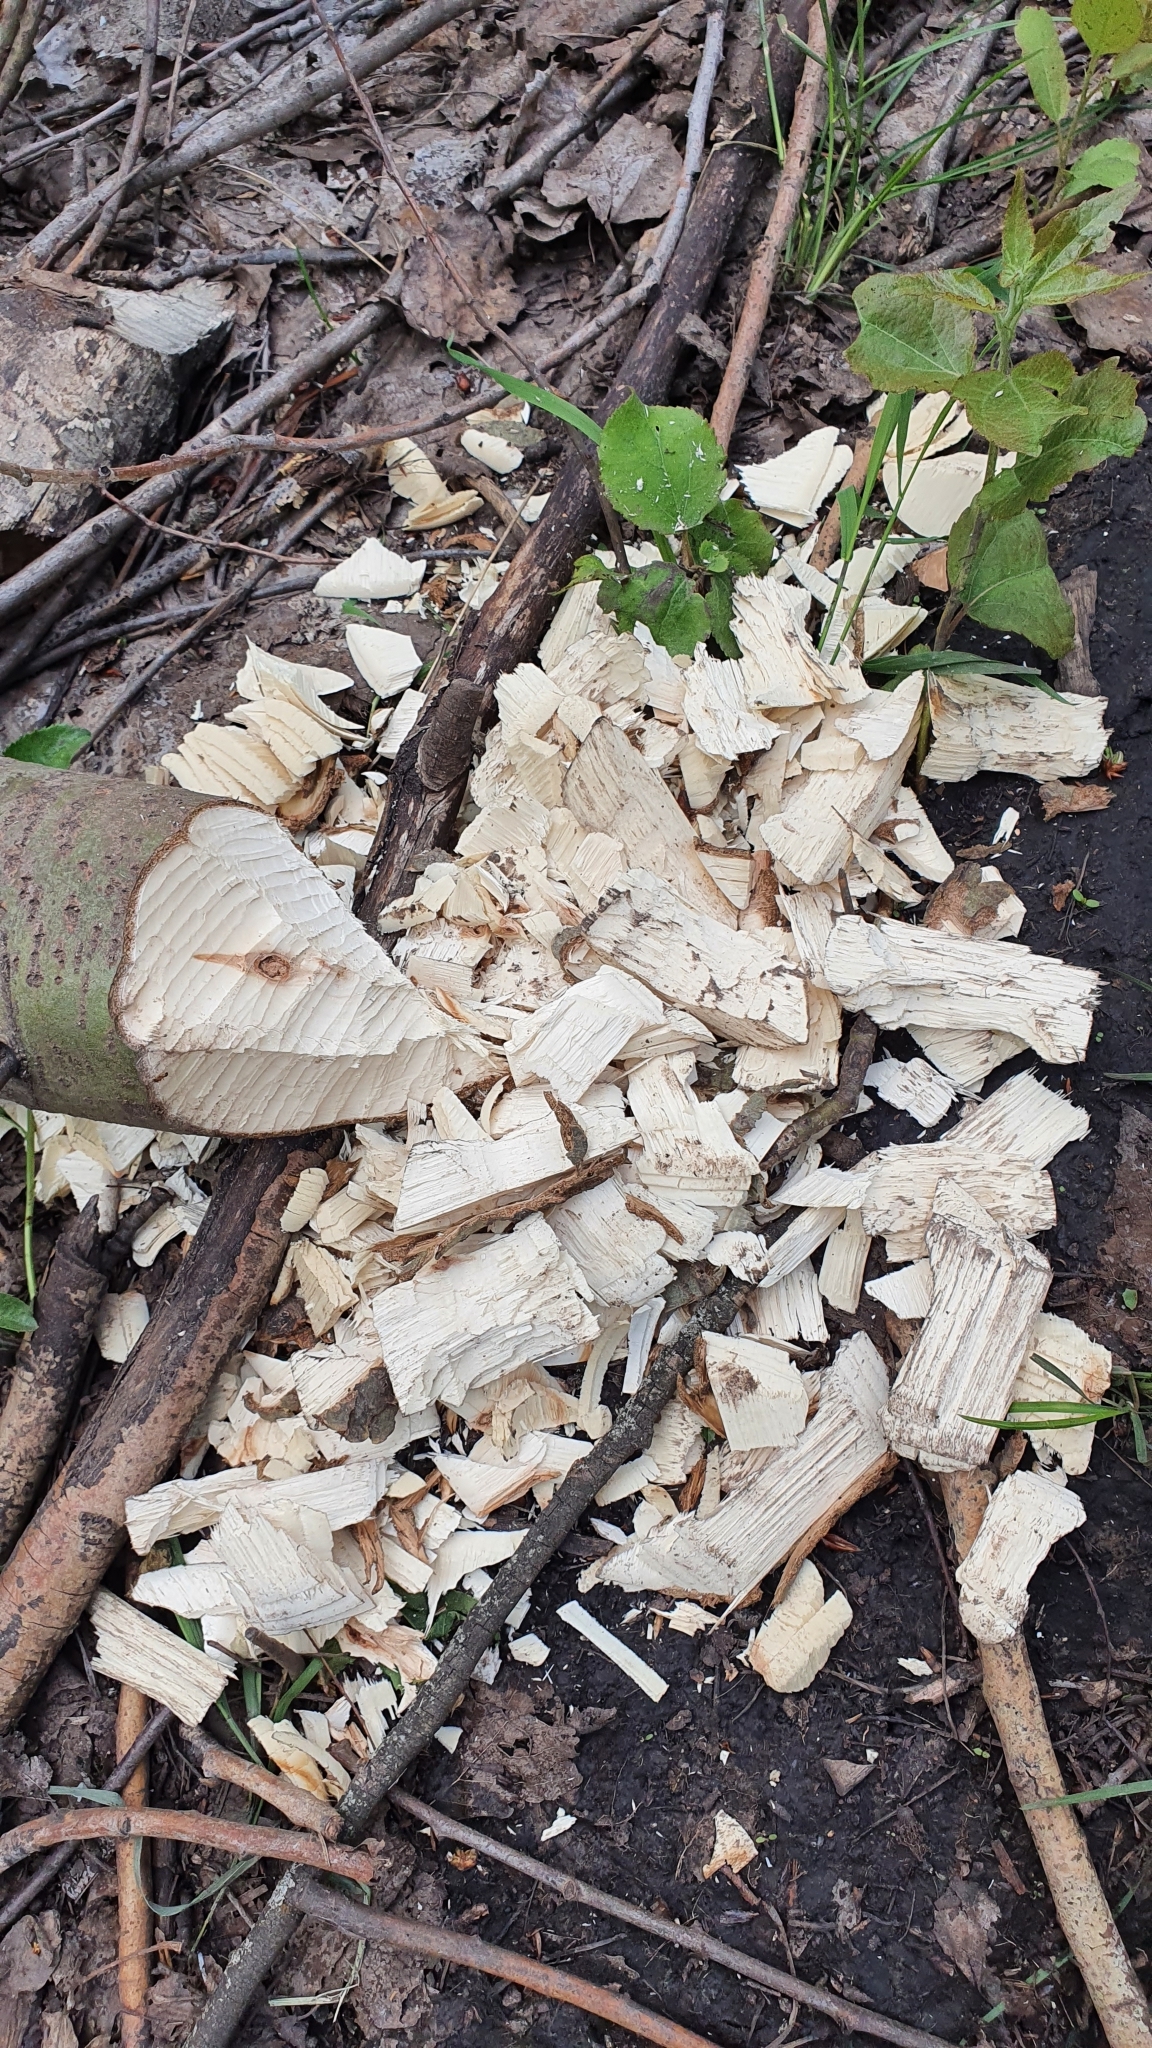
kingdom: Animalia
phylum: Chordata
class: Mammalia
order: Rodentia
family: Castoridae
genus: Castor
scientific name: Castor fiber
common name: Eurasian beaver
